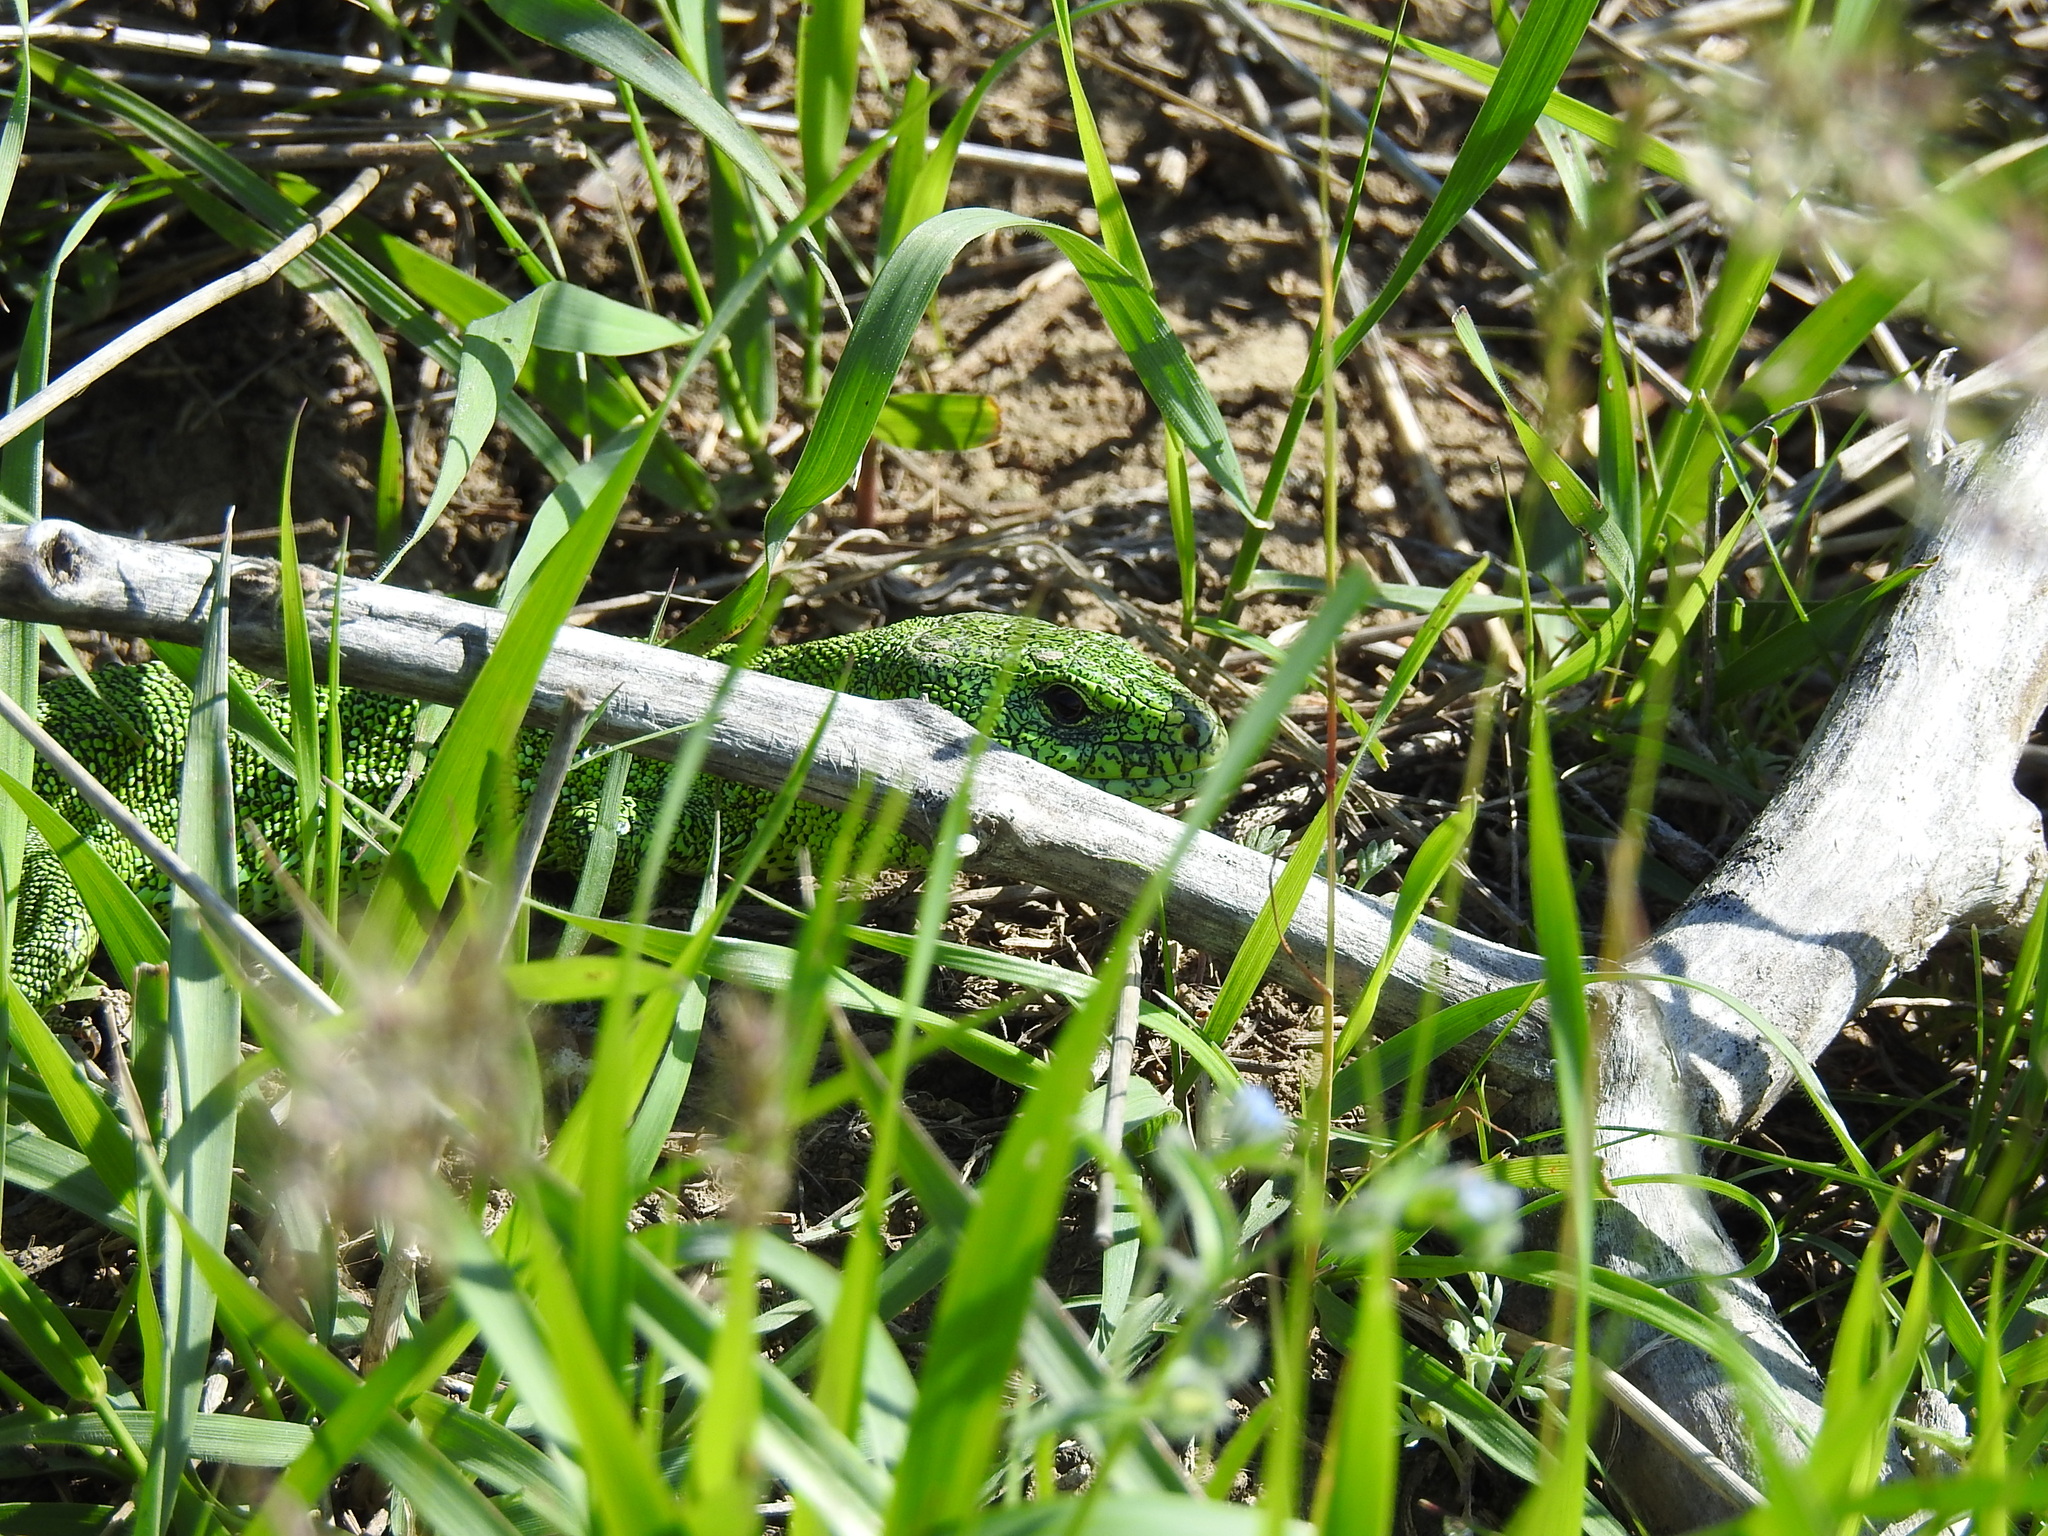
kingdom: Animalia
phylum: Chordata
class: Squamata
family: Lacertidae
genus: Lacerta
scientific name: Lacerta agilis
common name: Sand lizard
